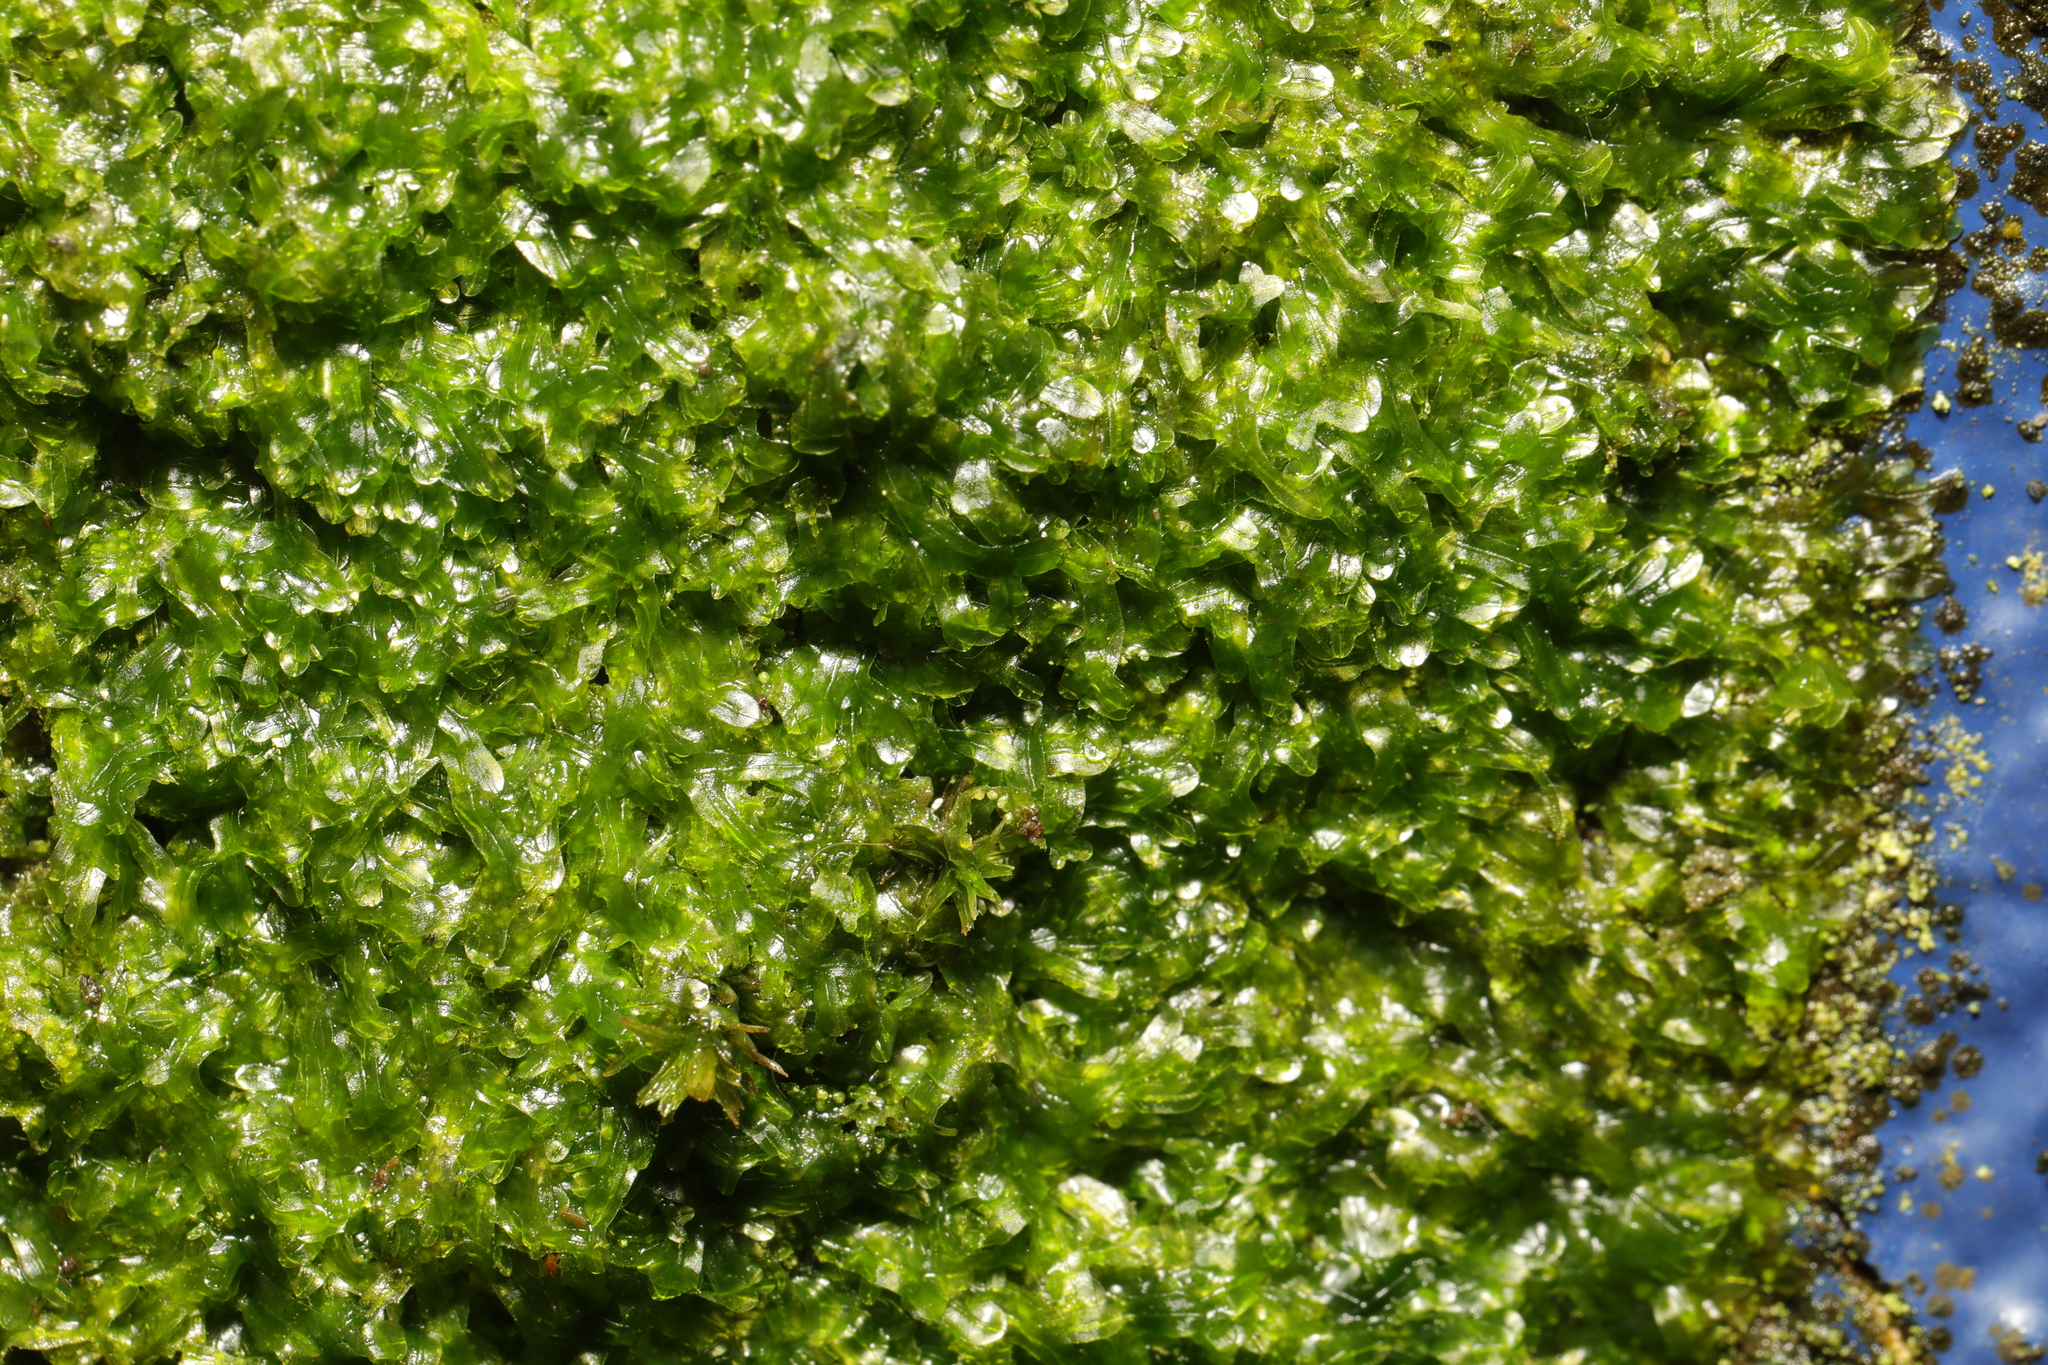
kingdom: Plantae
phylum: Marchantiophyta
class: Jungermanniopsida
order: Metzgeriales
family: Metzgeriaceae
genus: Metzgeria
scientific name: Metzgeria furcata
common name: Forked veilwort
